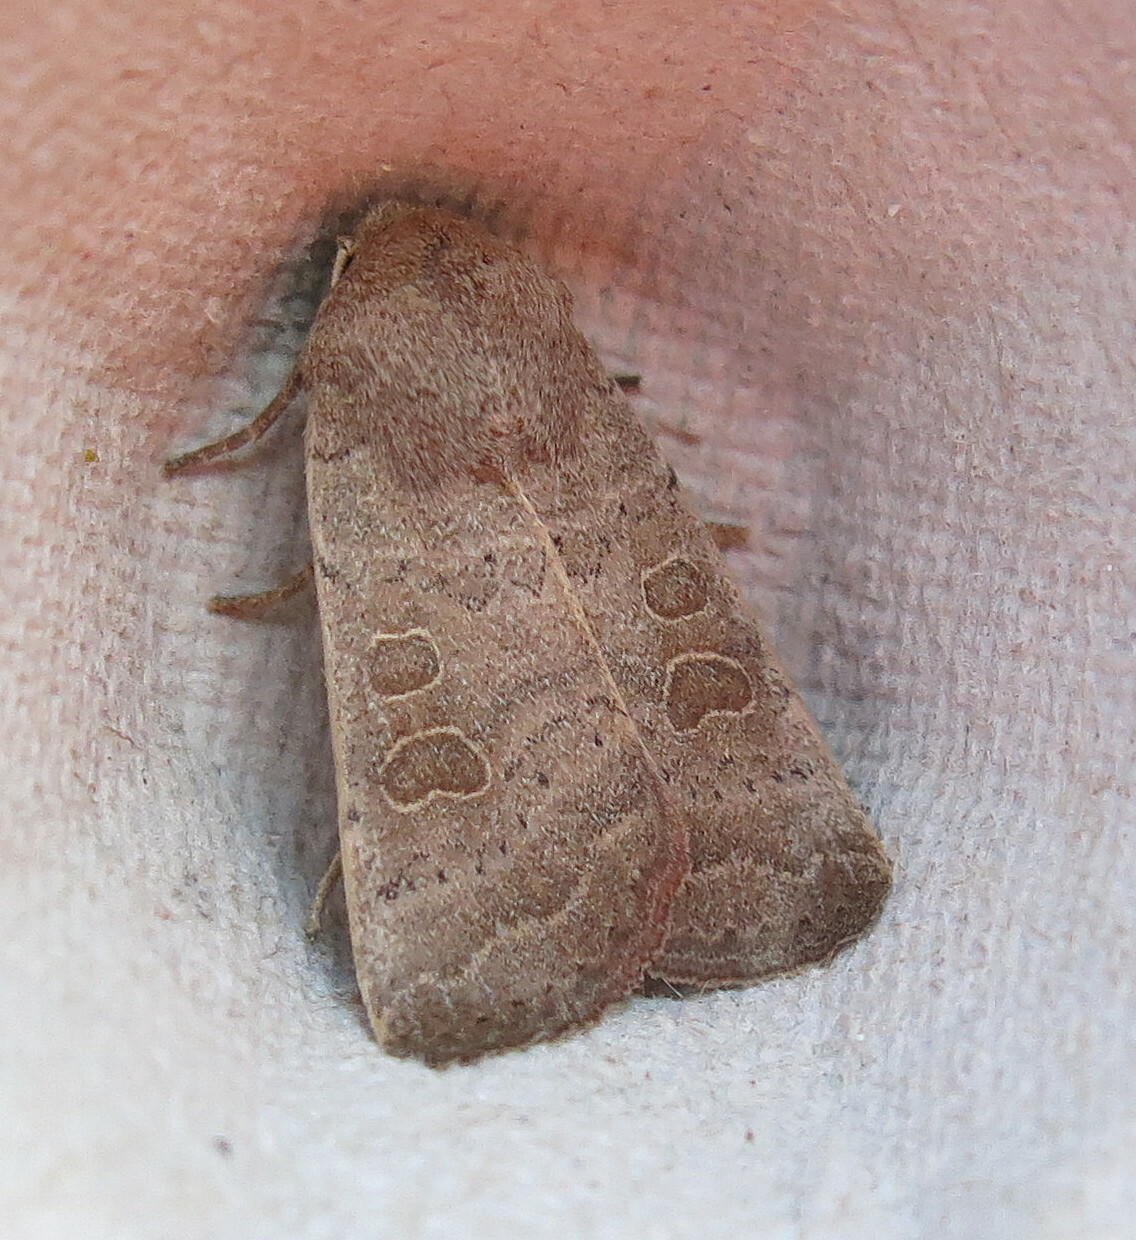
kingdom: Animalia
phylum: Arthropoda
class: Insecta
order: Lepidoptera
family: Noctuidae
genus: Hoplodrina
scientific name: Hoplodrina ambigua
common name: Vine's rustic
